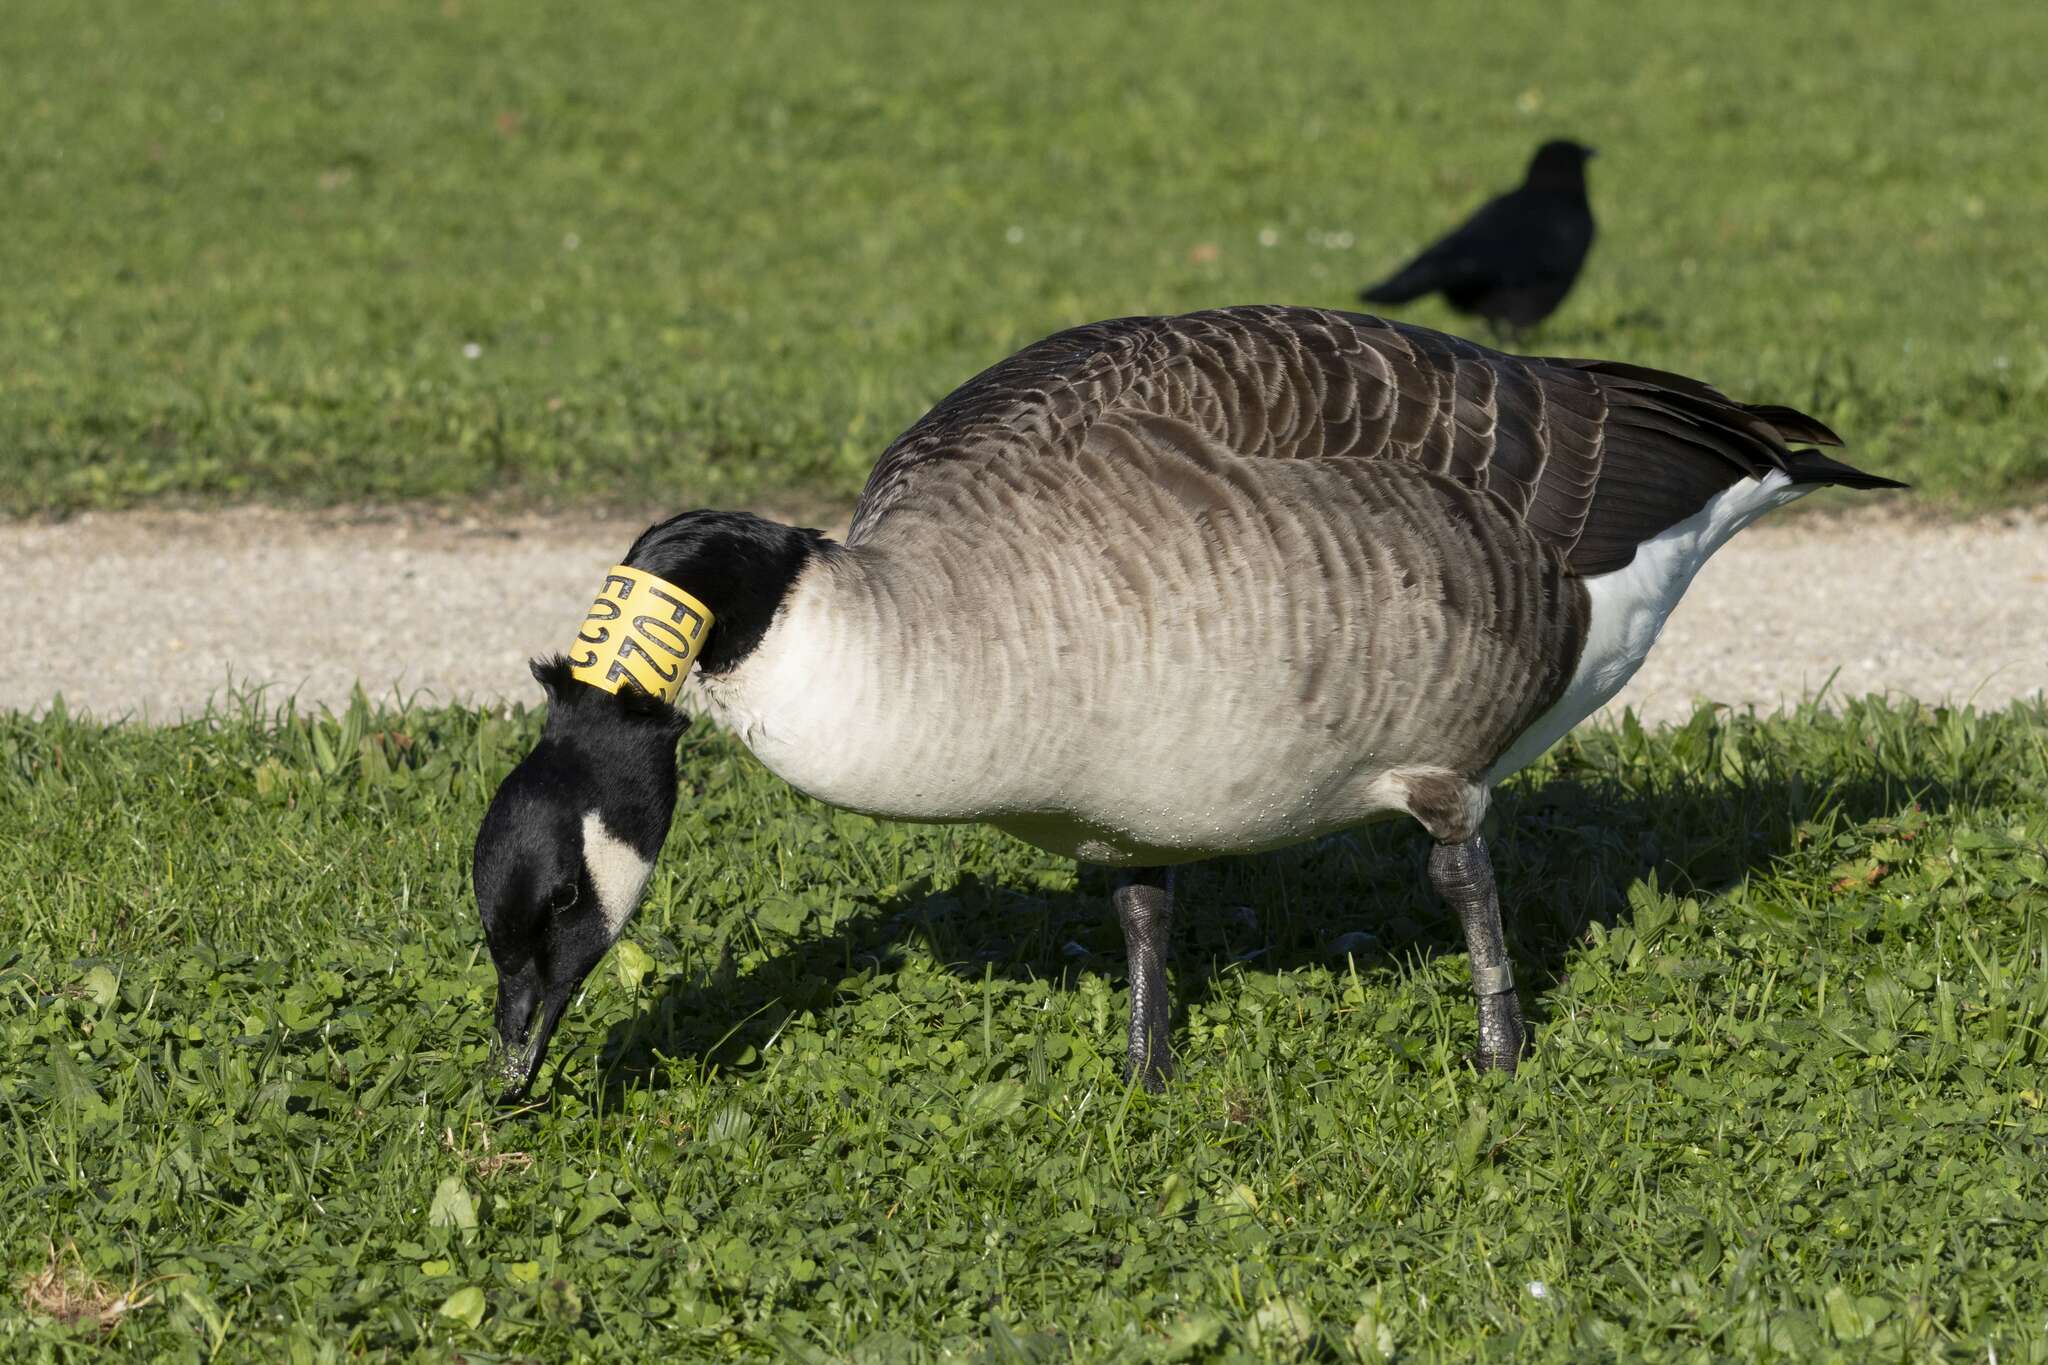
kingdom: Animalia
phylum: Chordata
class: Aves
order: Anseriformes
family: Anatidae
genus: Branta
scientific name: Branta canadensis
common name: Canada goose
